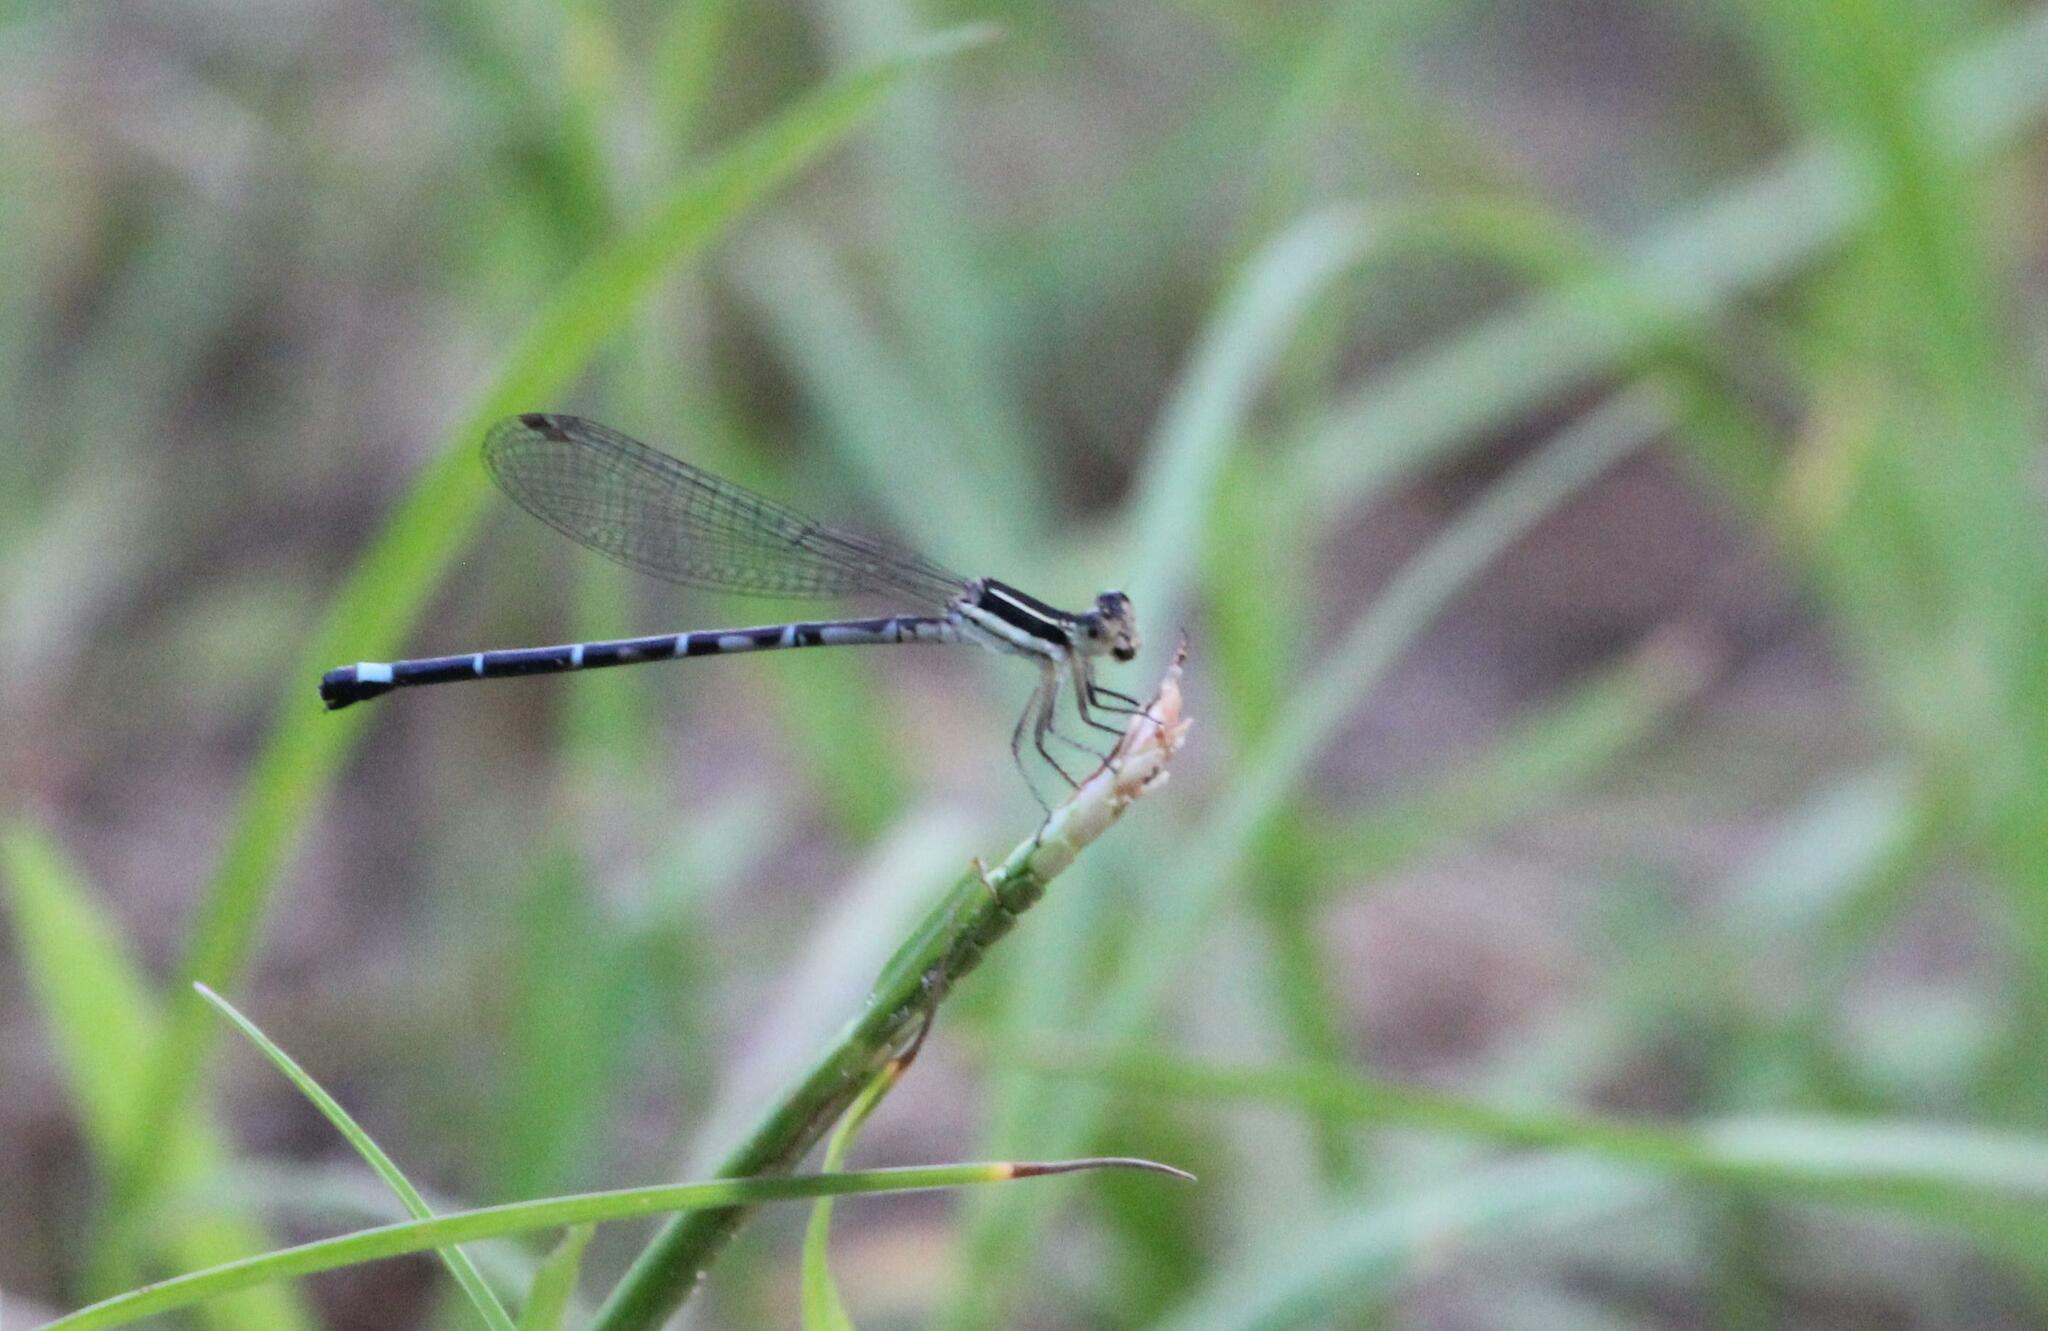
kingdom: Animalia
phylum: Arthropoda
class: Insecta
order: Odonata
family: Coenagrionidae
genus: Argia
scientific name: Argia bipunctulata
